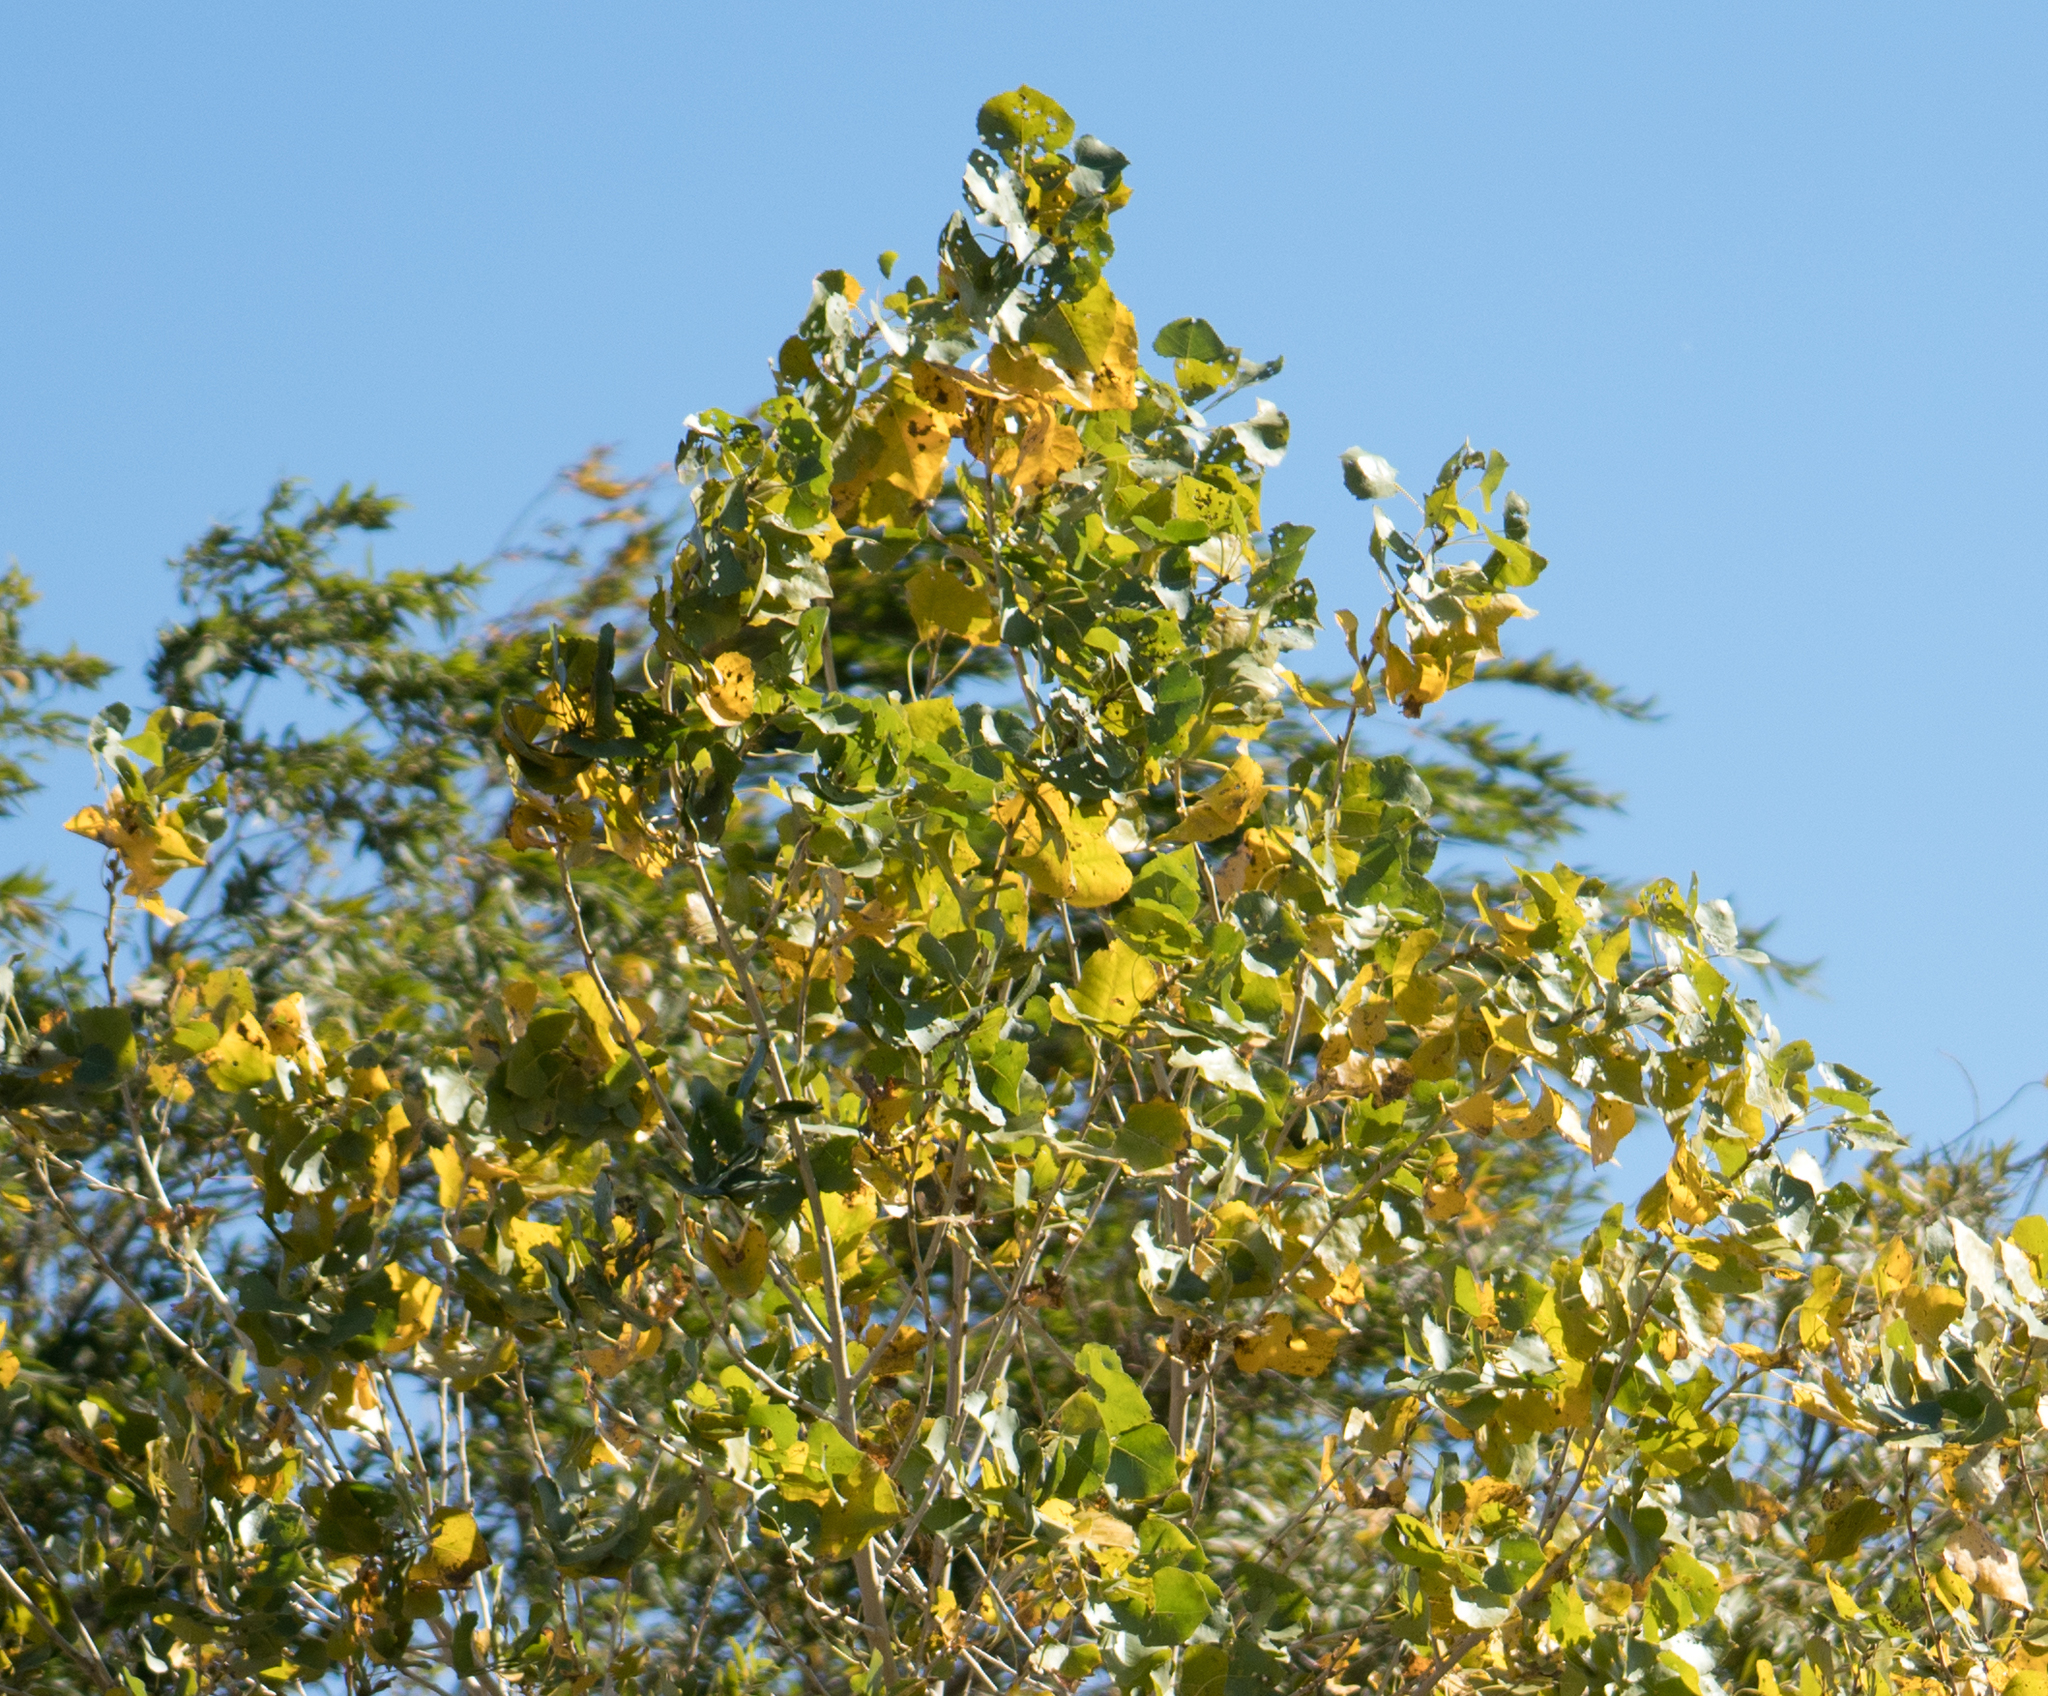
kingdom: Plantae
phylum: Tracheophyta
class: Magnoliopsida
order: Malpighiales
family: Salicaceae
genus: Populus
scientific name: Populus fremontii
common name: Fremont's cottonwood
